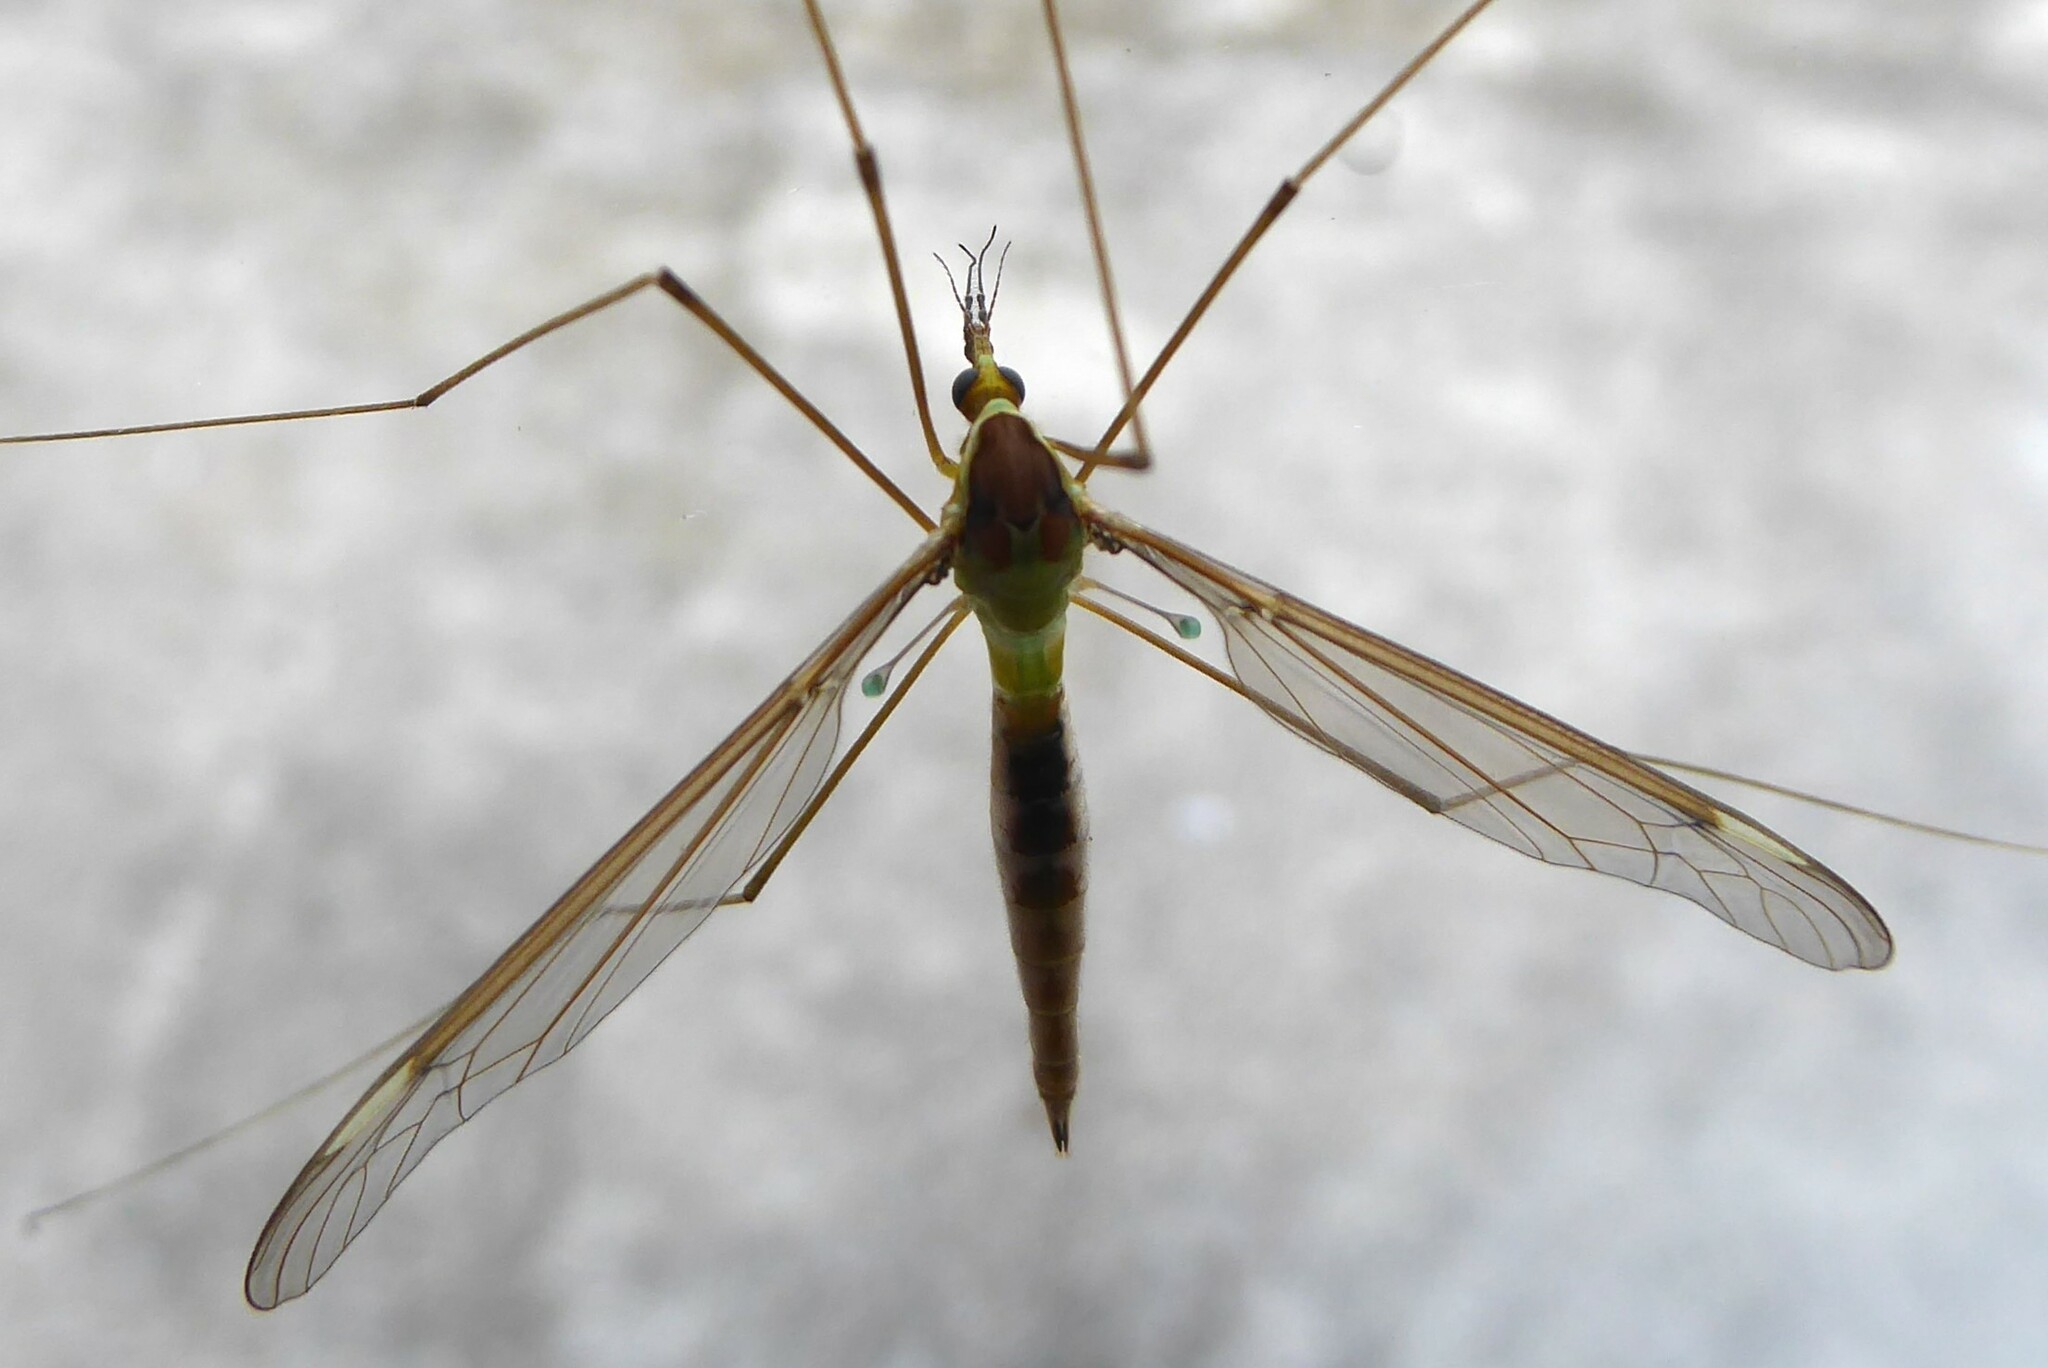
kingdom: Animalia
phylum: Arthropoda
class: Insecta
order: Diptera
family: Tipulidae
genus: Leptotarsus
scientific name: Leptotarsus albistigma
